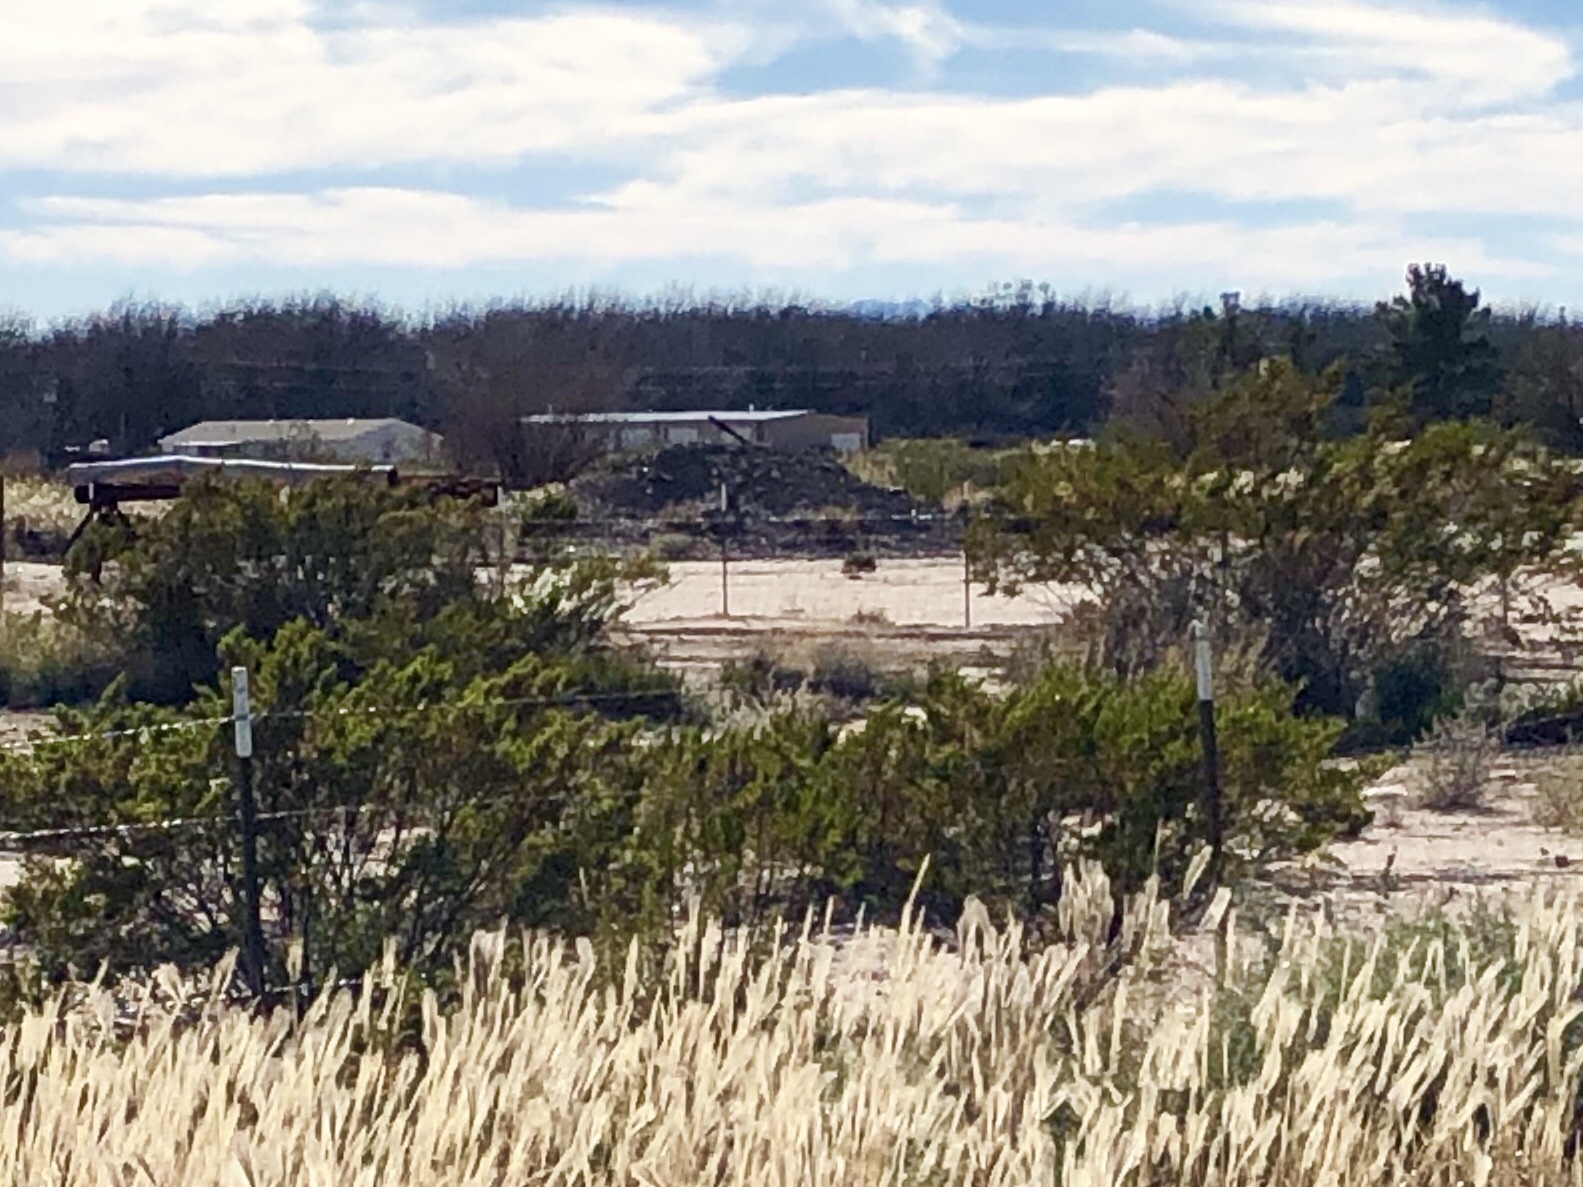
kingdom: Plantae
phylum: Tracheophyta
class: Magnoliopsida
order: Zygophyllales
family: Zygophyllaceae
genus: Larrea
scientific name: Larrea tridentata
